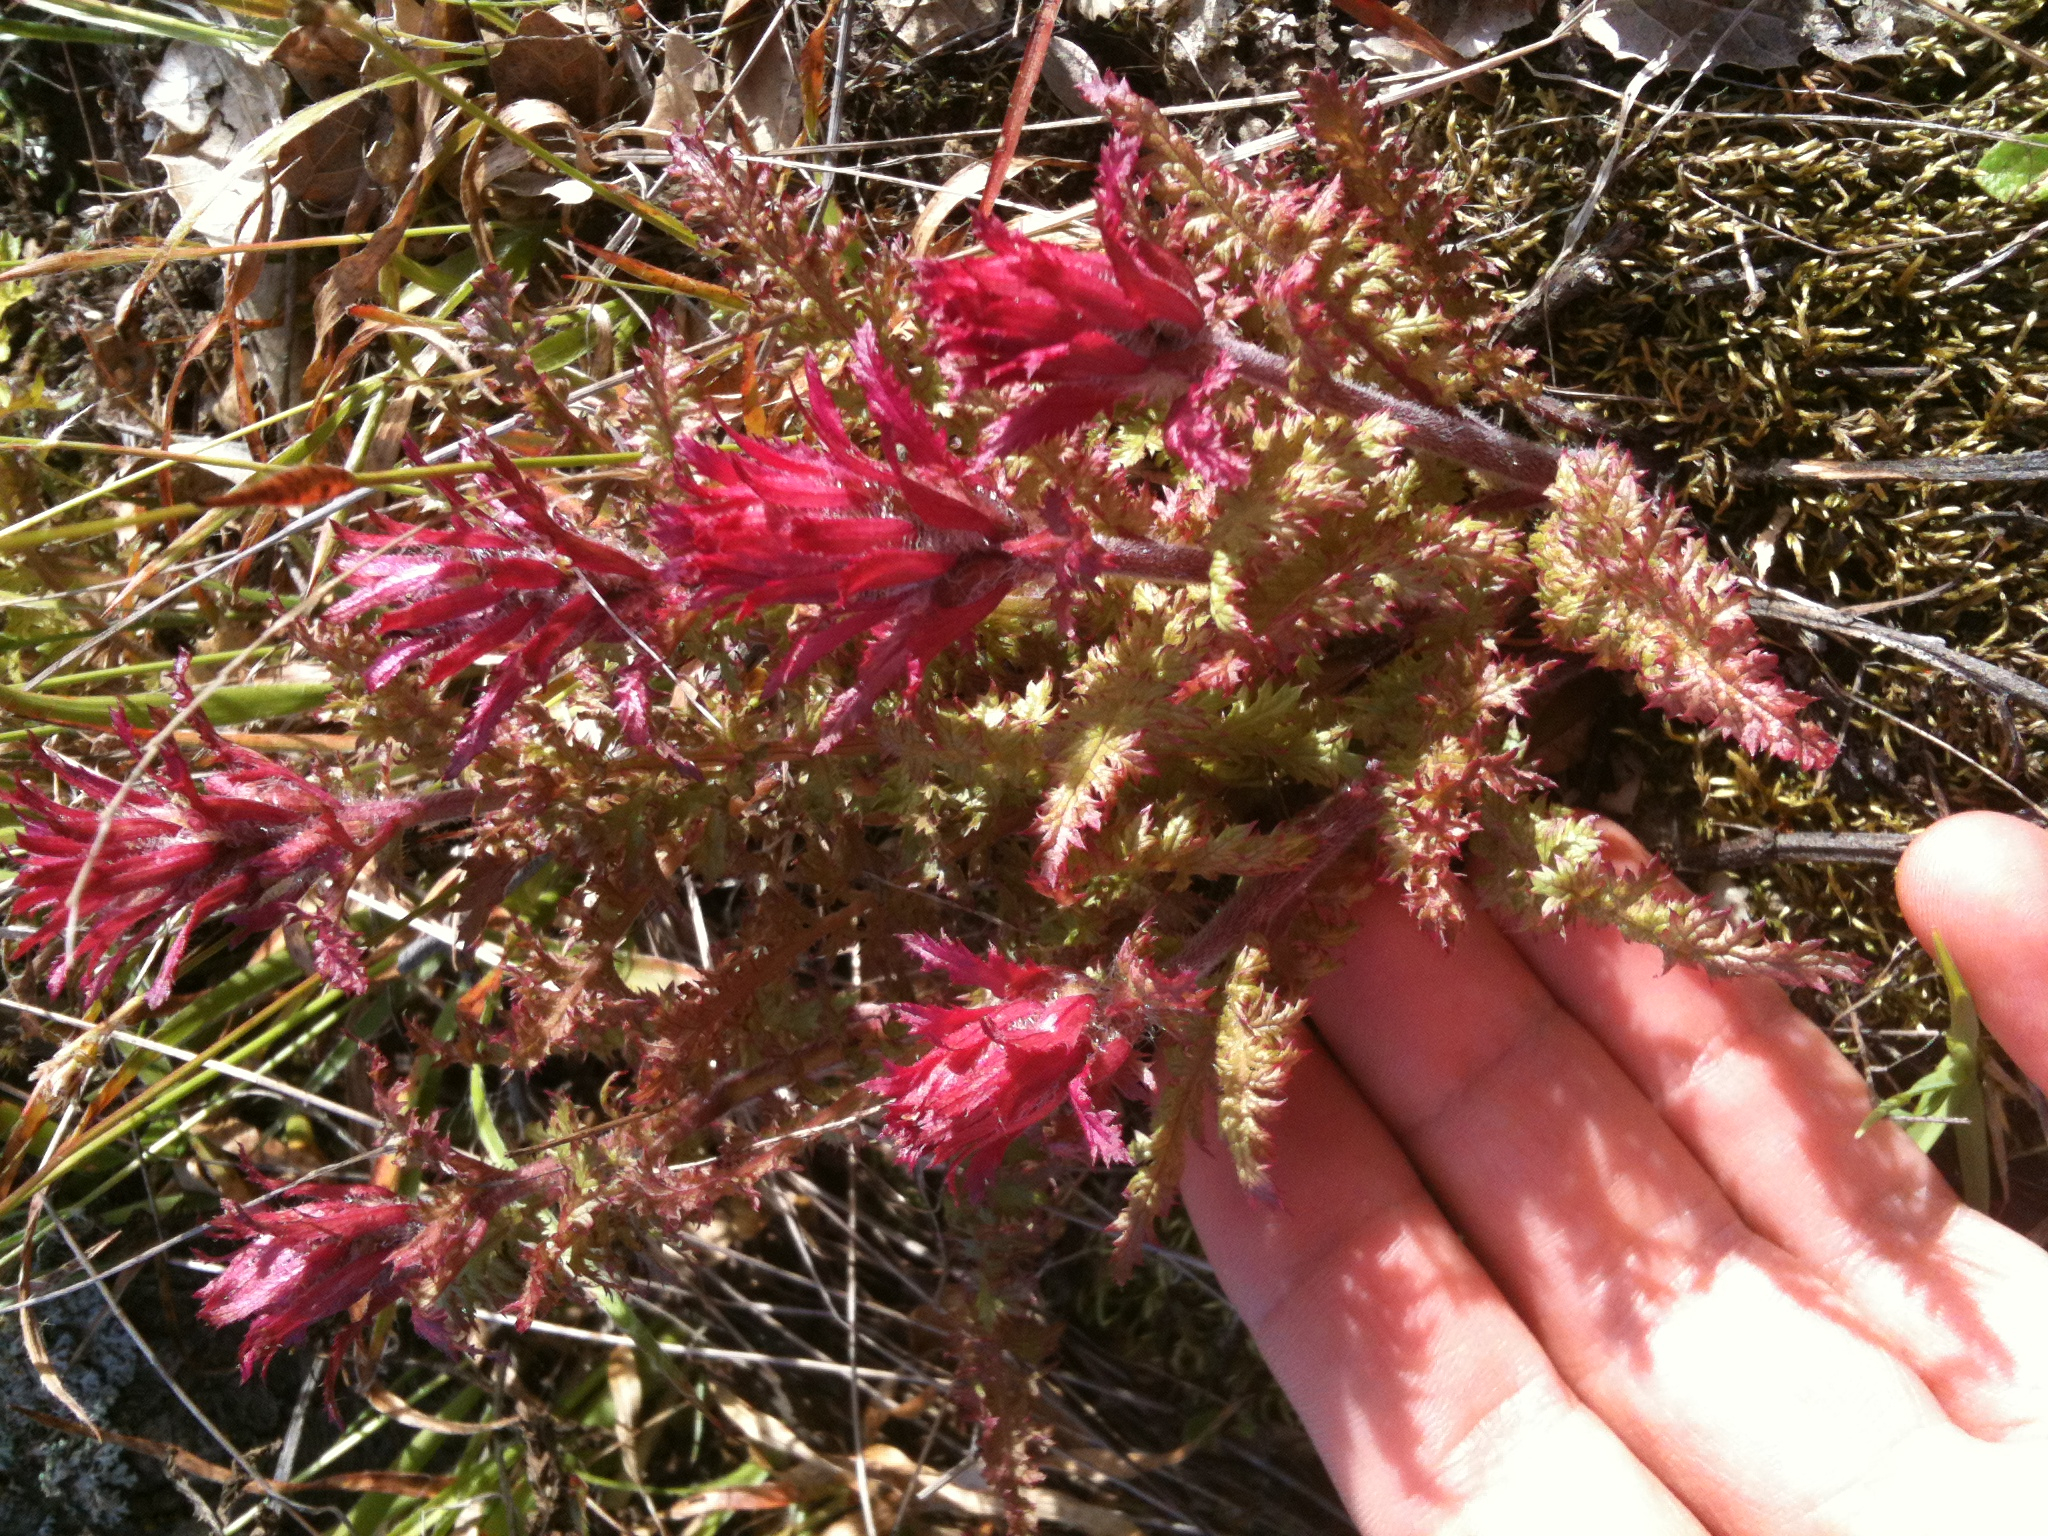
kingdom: Plantae
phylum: Tracheophyta
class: Magnoliopsida
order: Lamiales
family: Orobanchaceae
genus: Pedicularis
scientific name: Pedicularis densiflora
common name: Indian warrior
